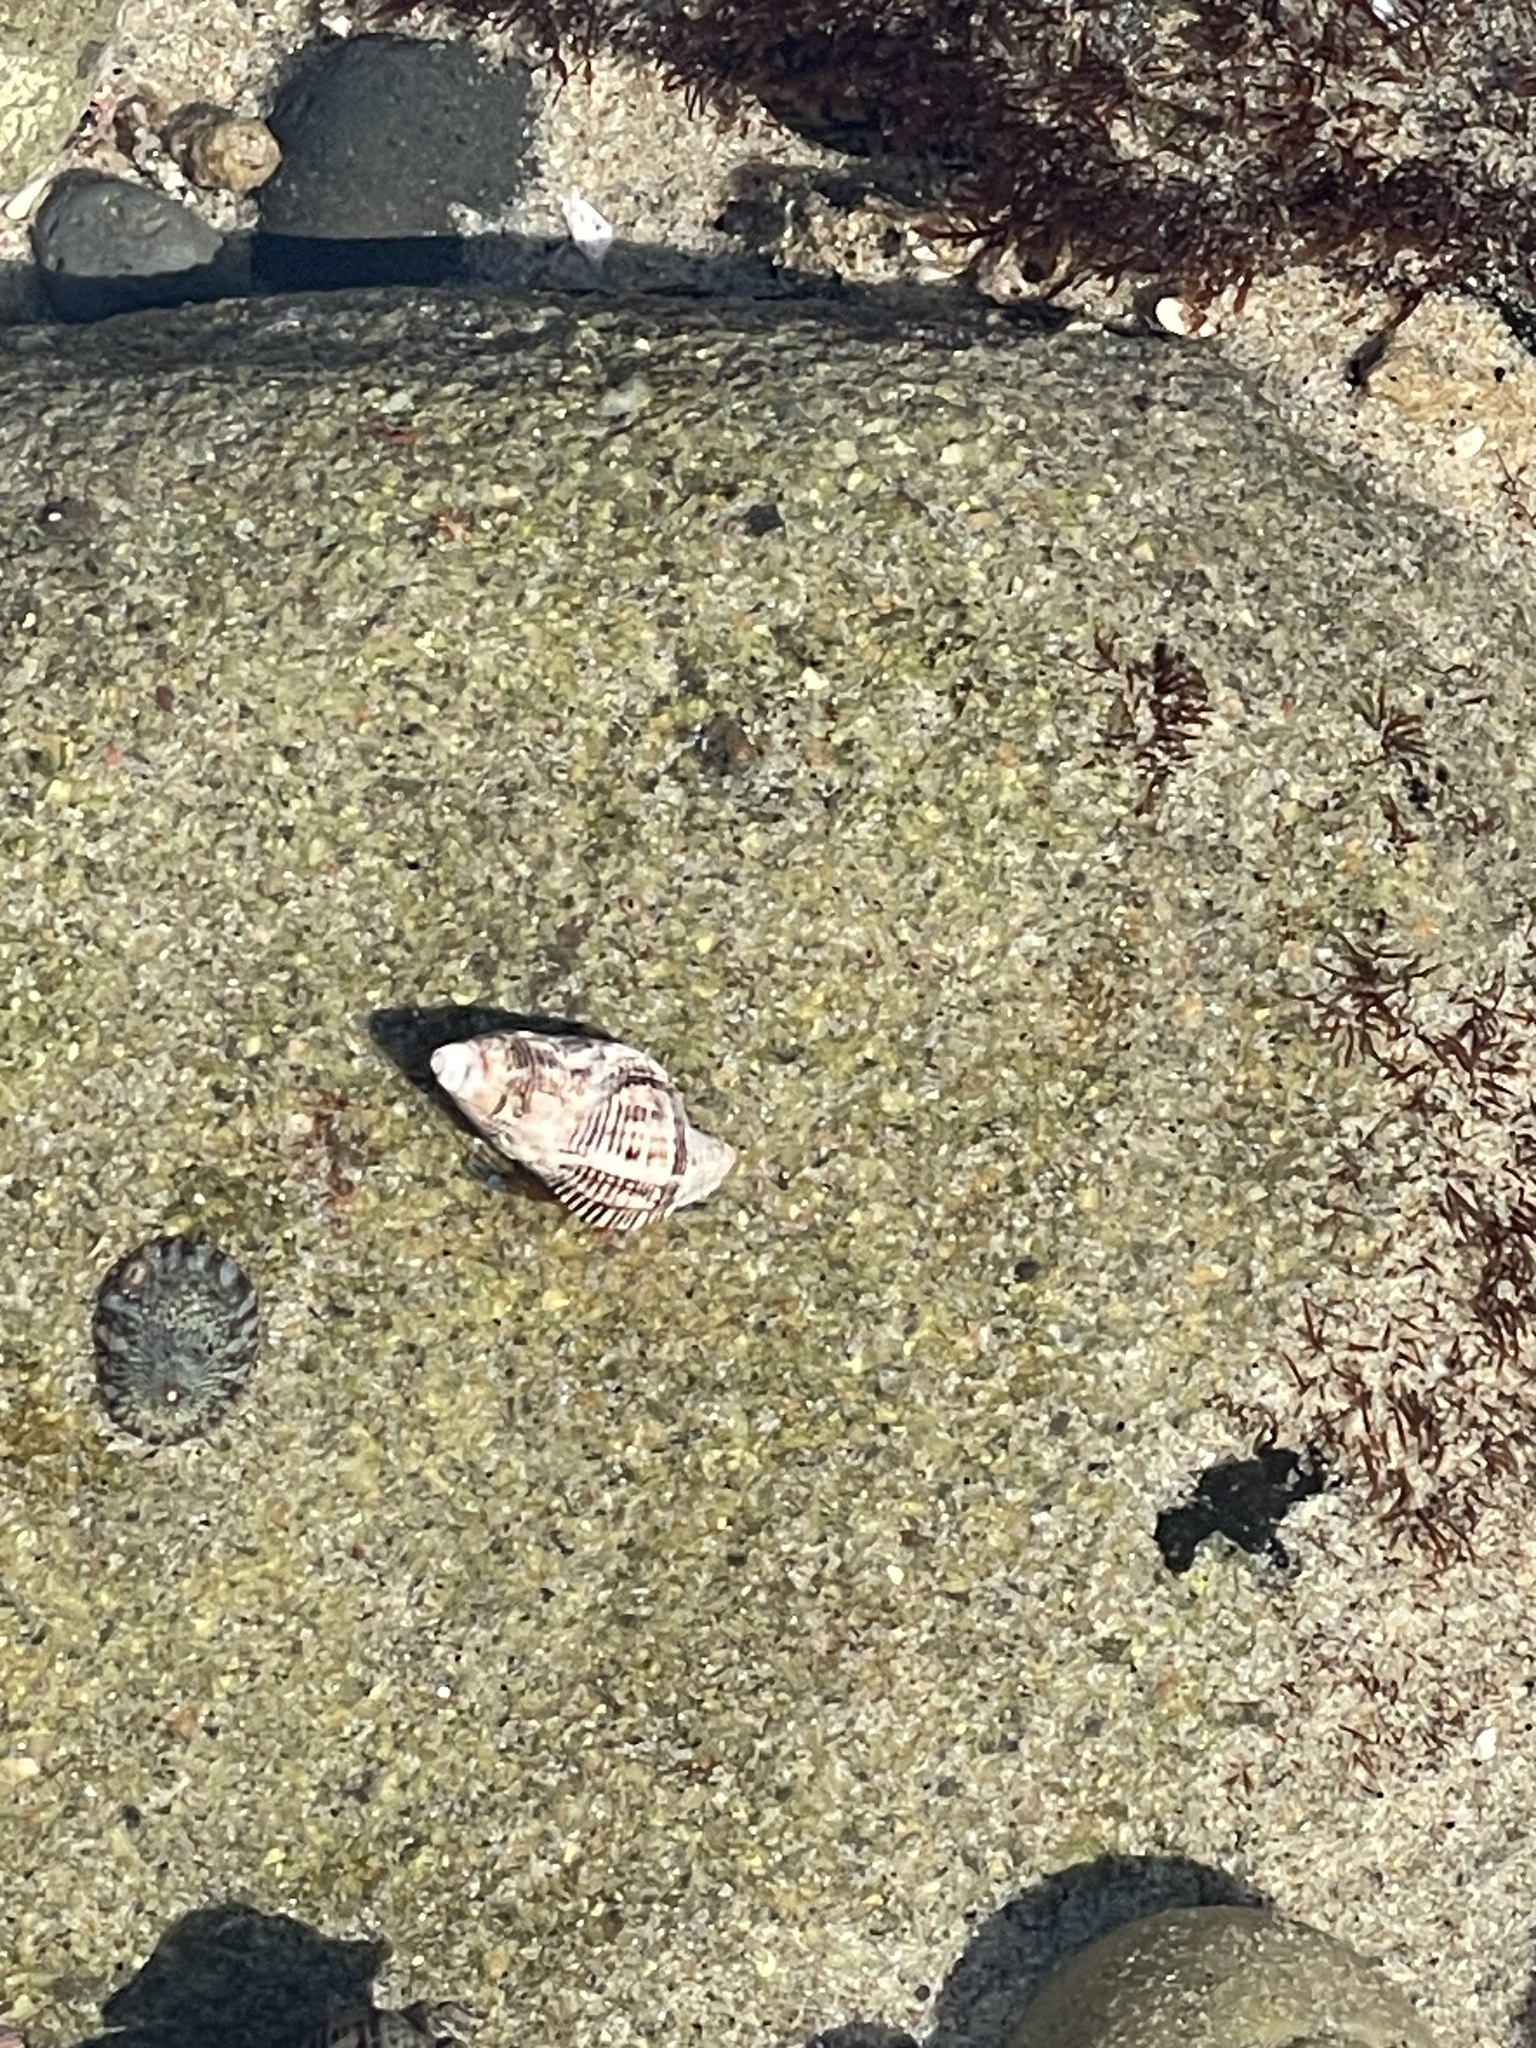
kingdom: Animalia
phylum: Mollusca
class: Gastropoda
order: Neogastropoda
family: Muricidae
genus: Roperia
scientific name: Roperia poulsoni
